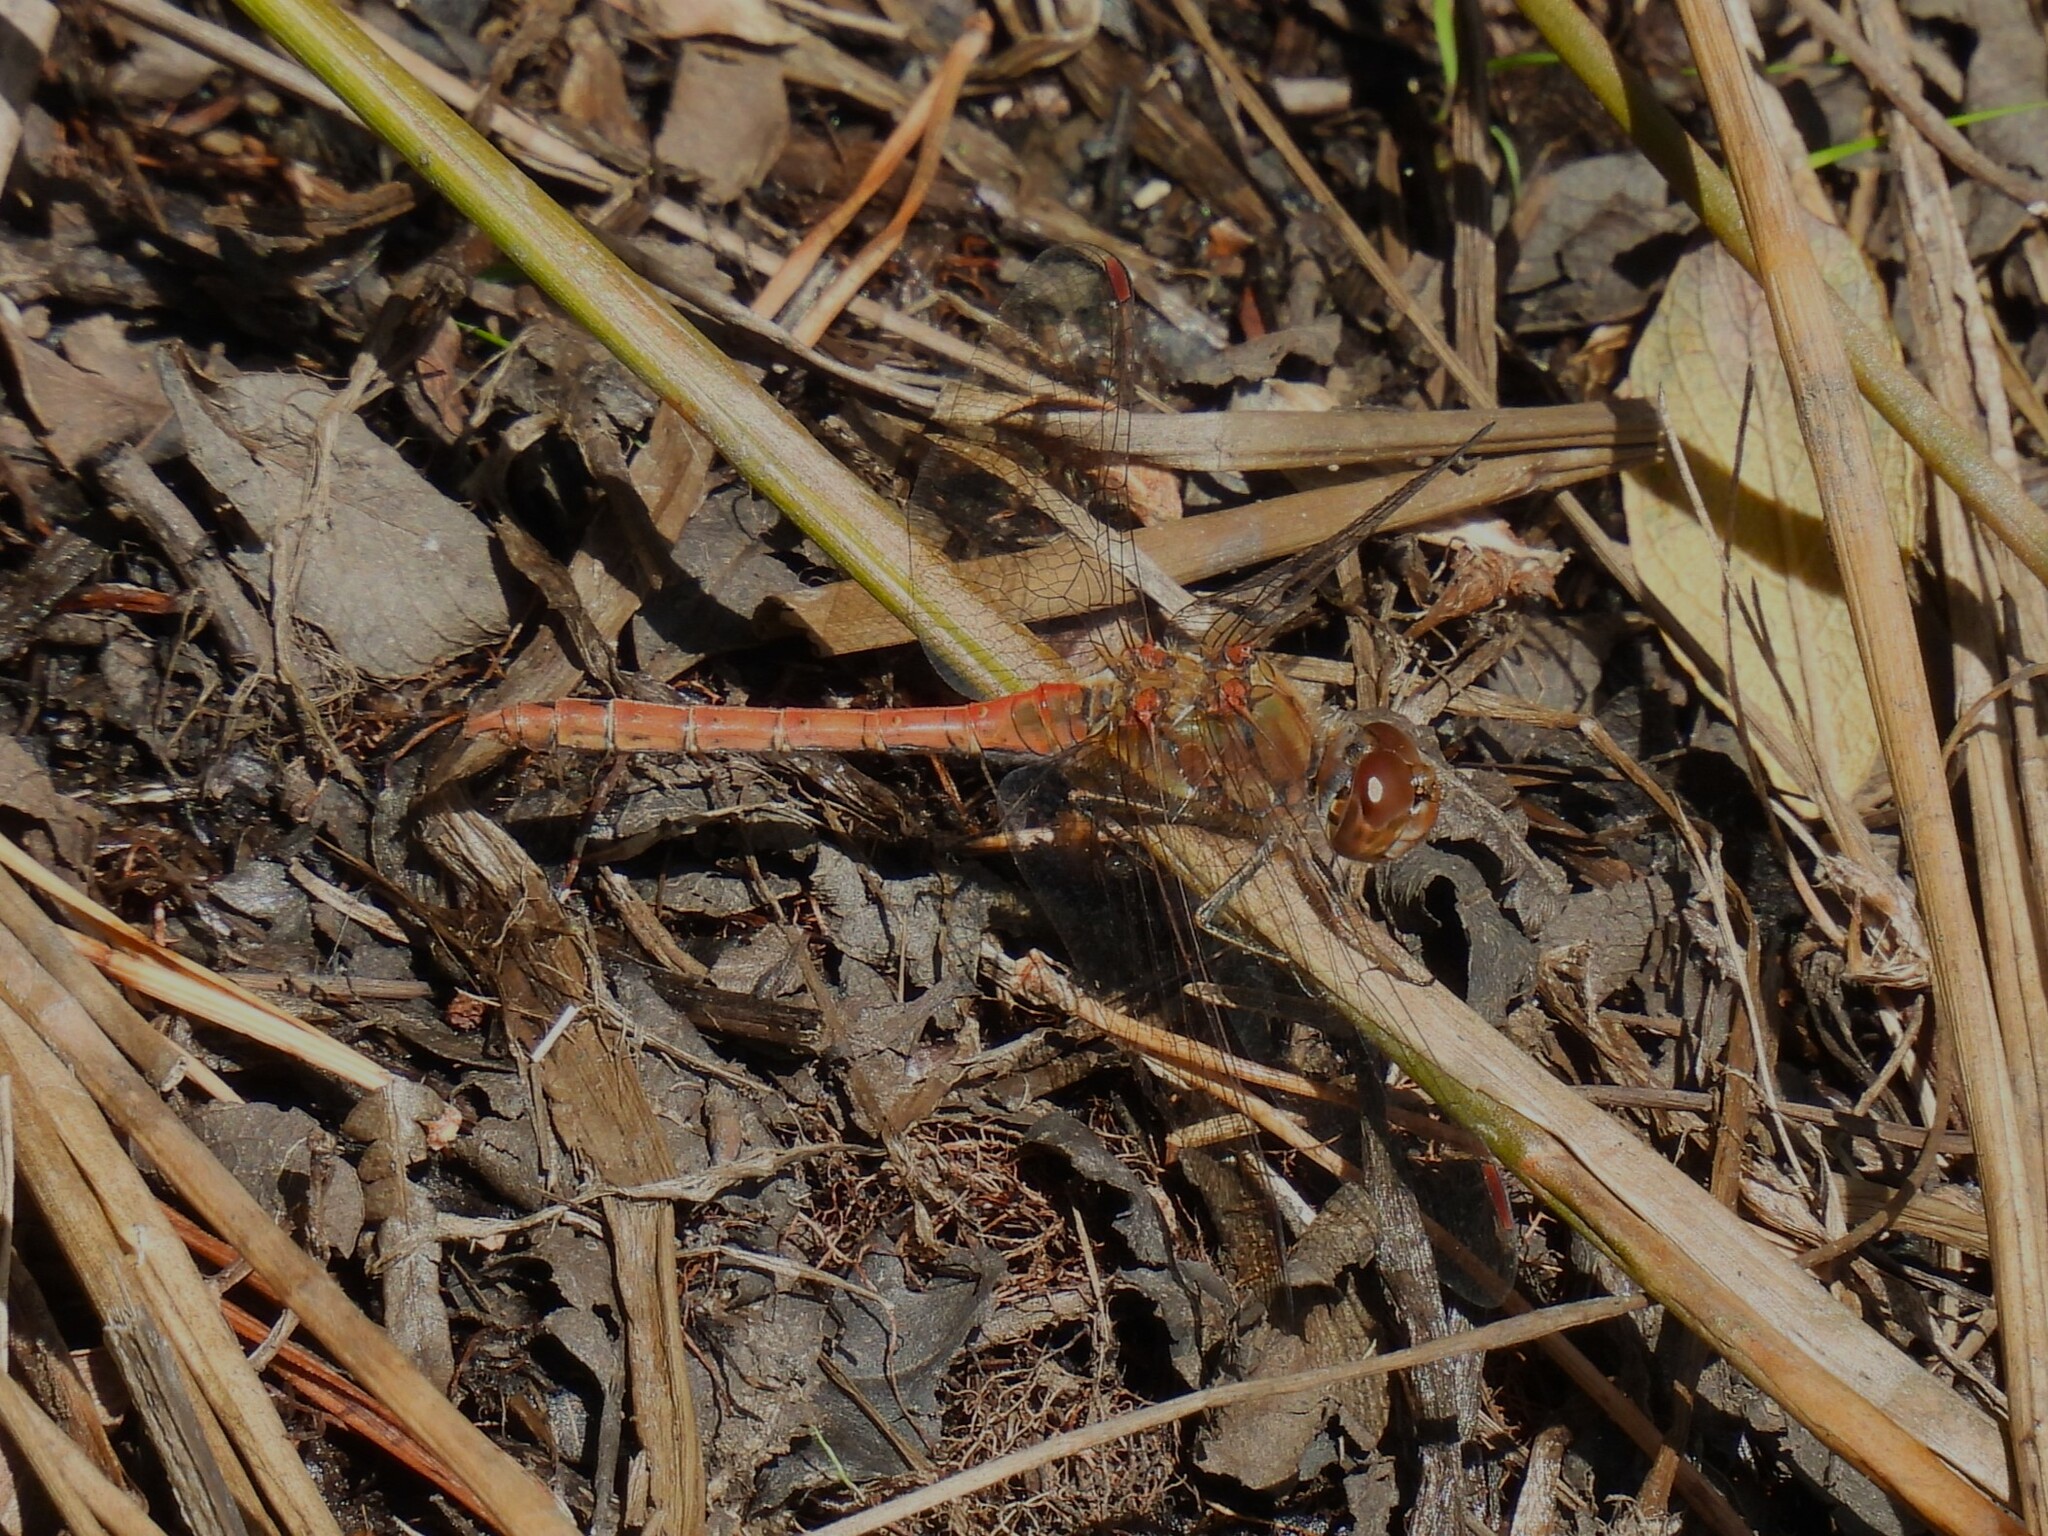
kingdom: Animalia
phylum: Arthropoda
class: Insecta
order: Odonata
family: Libellulidae
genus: Sympetrum
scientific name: Sympetrum striolatum
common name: Common darter
